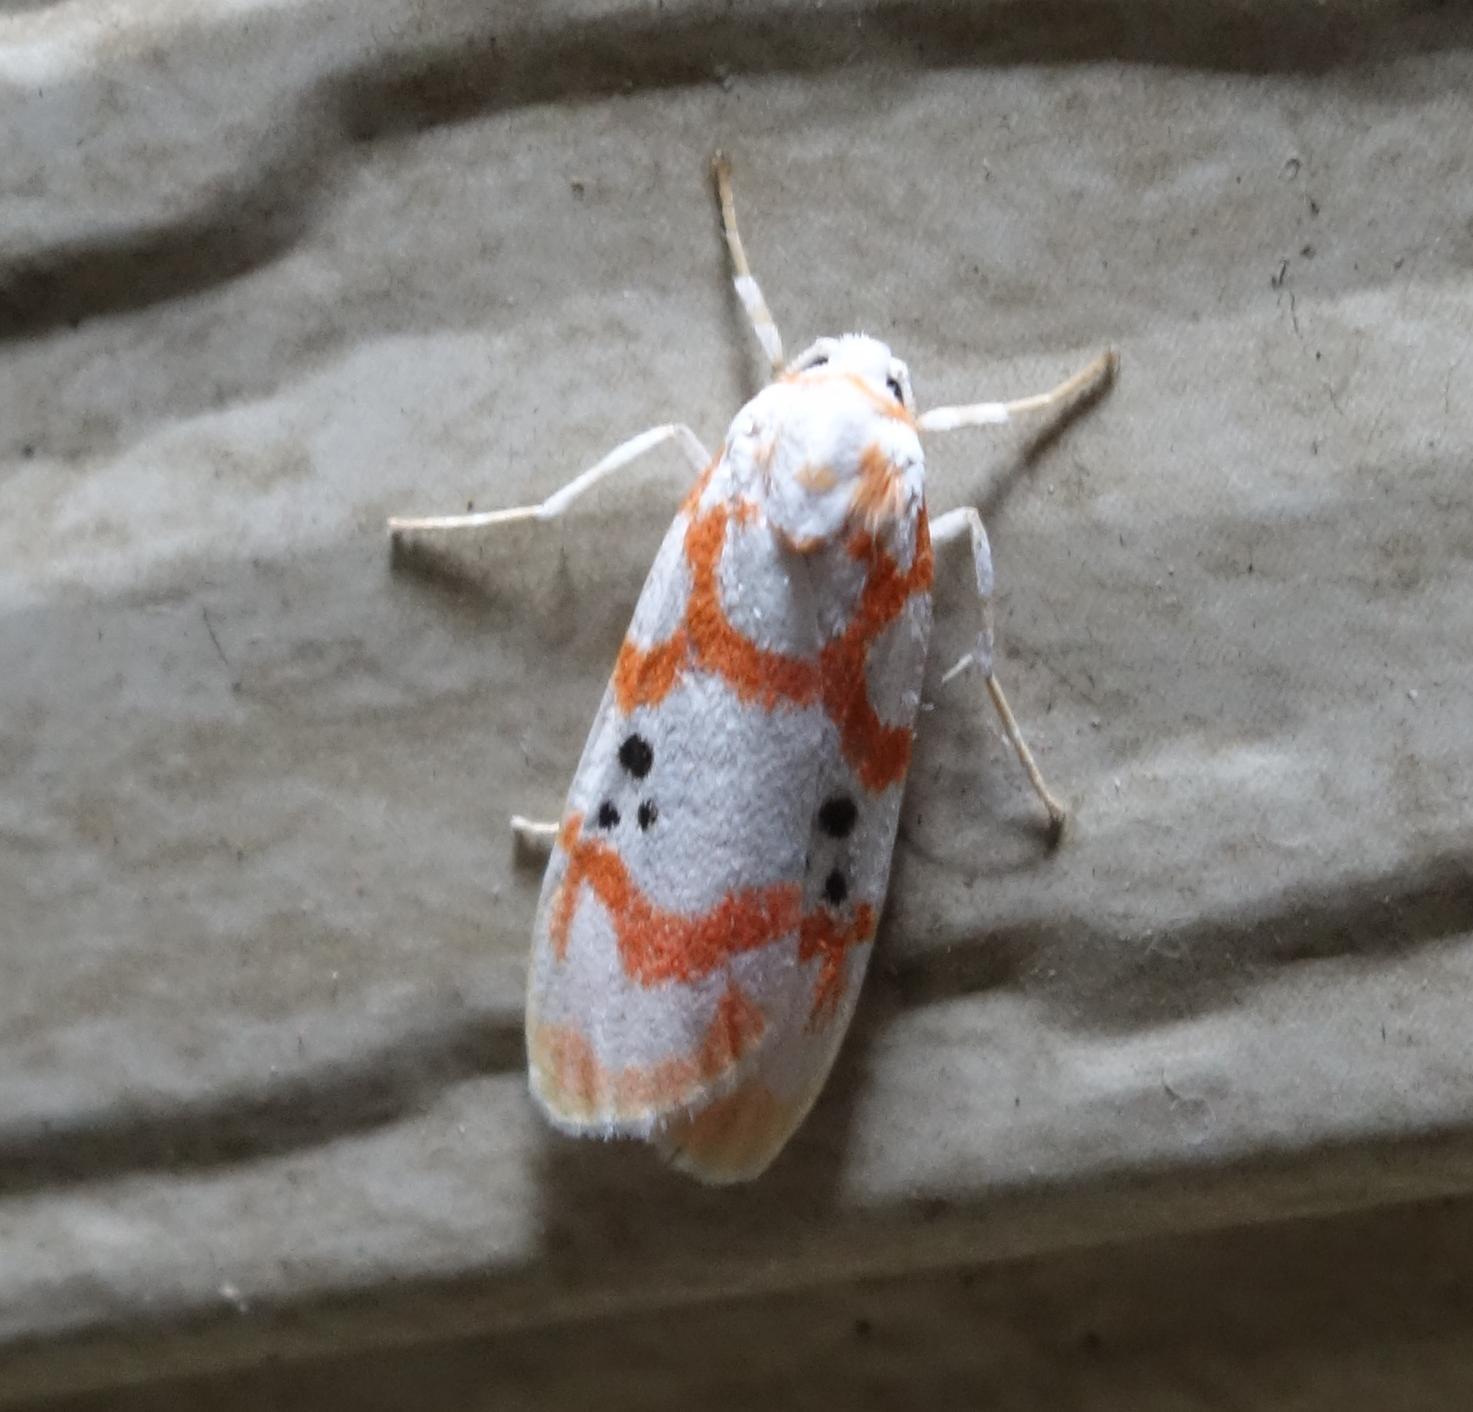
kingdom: Animalia
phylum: Arthropoda
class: Insecta
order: Lepidoptera
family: Erebidae
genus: Cyana
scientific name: Cyana formosana
